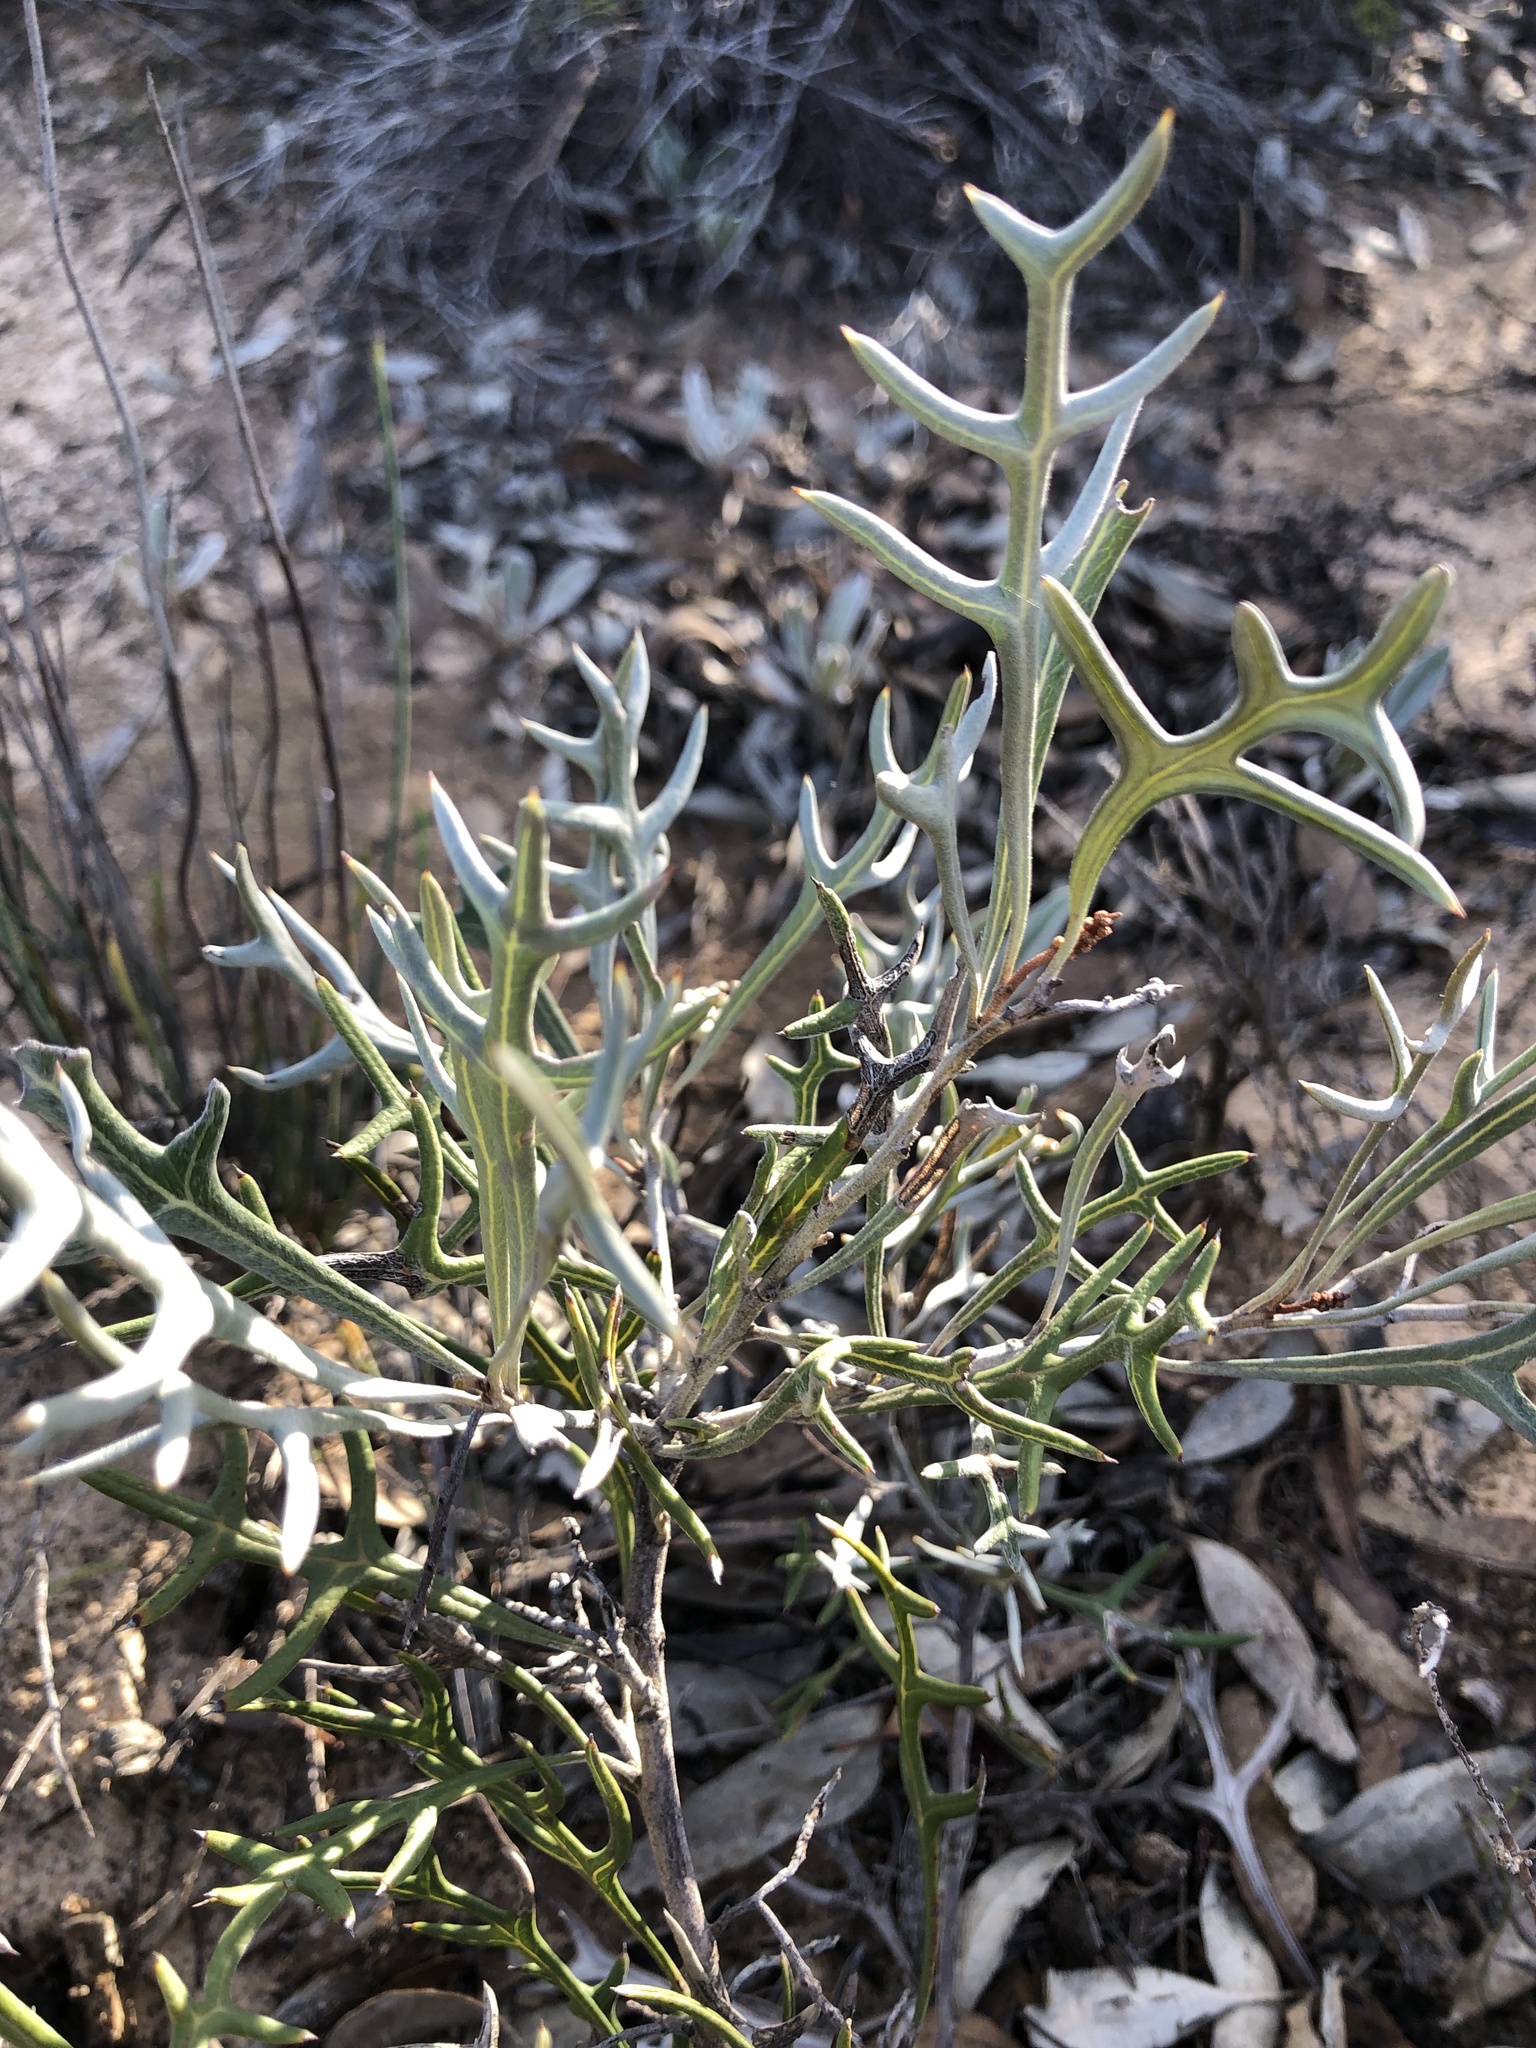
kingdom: Plantae
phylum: Tracheophyta
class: Magnoliopsida
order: Proteales
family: Proteaceae
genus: Grevillea
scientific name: Grevillea ilicifolia
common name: Holly grevillea
